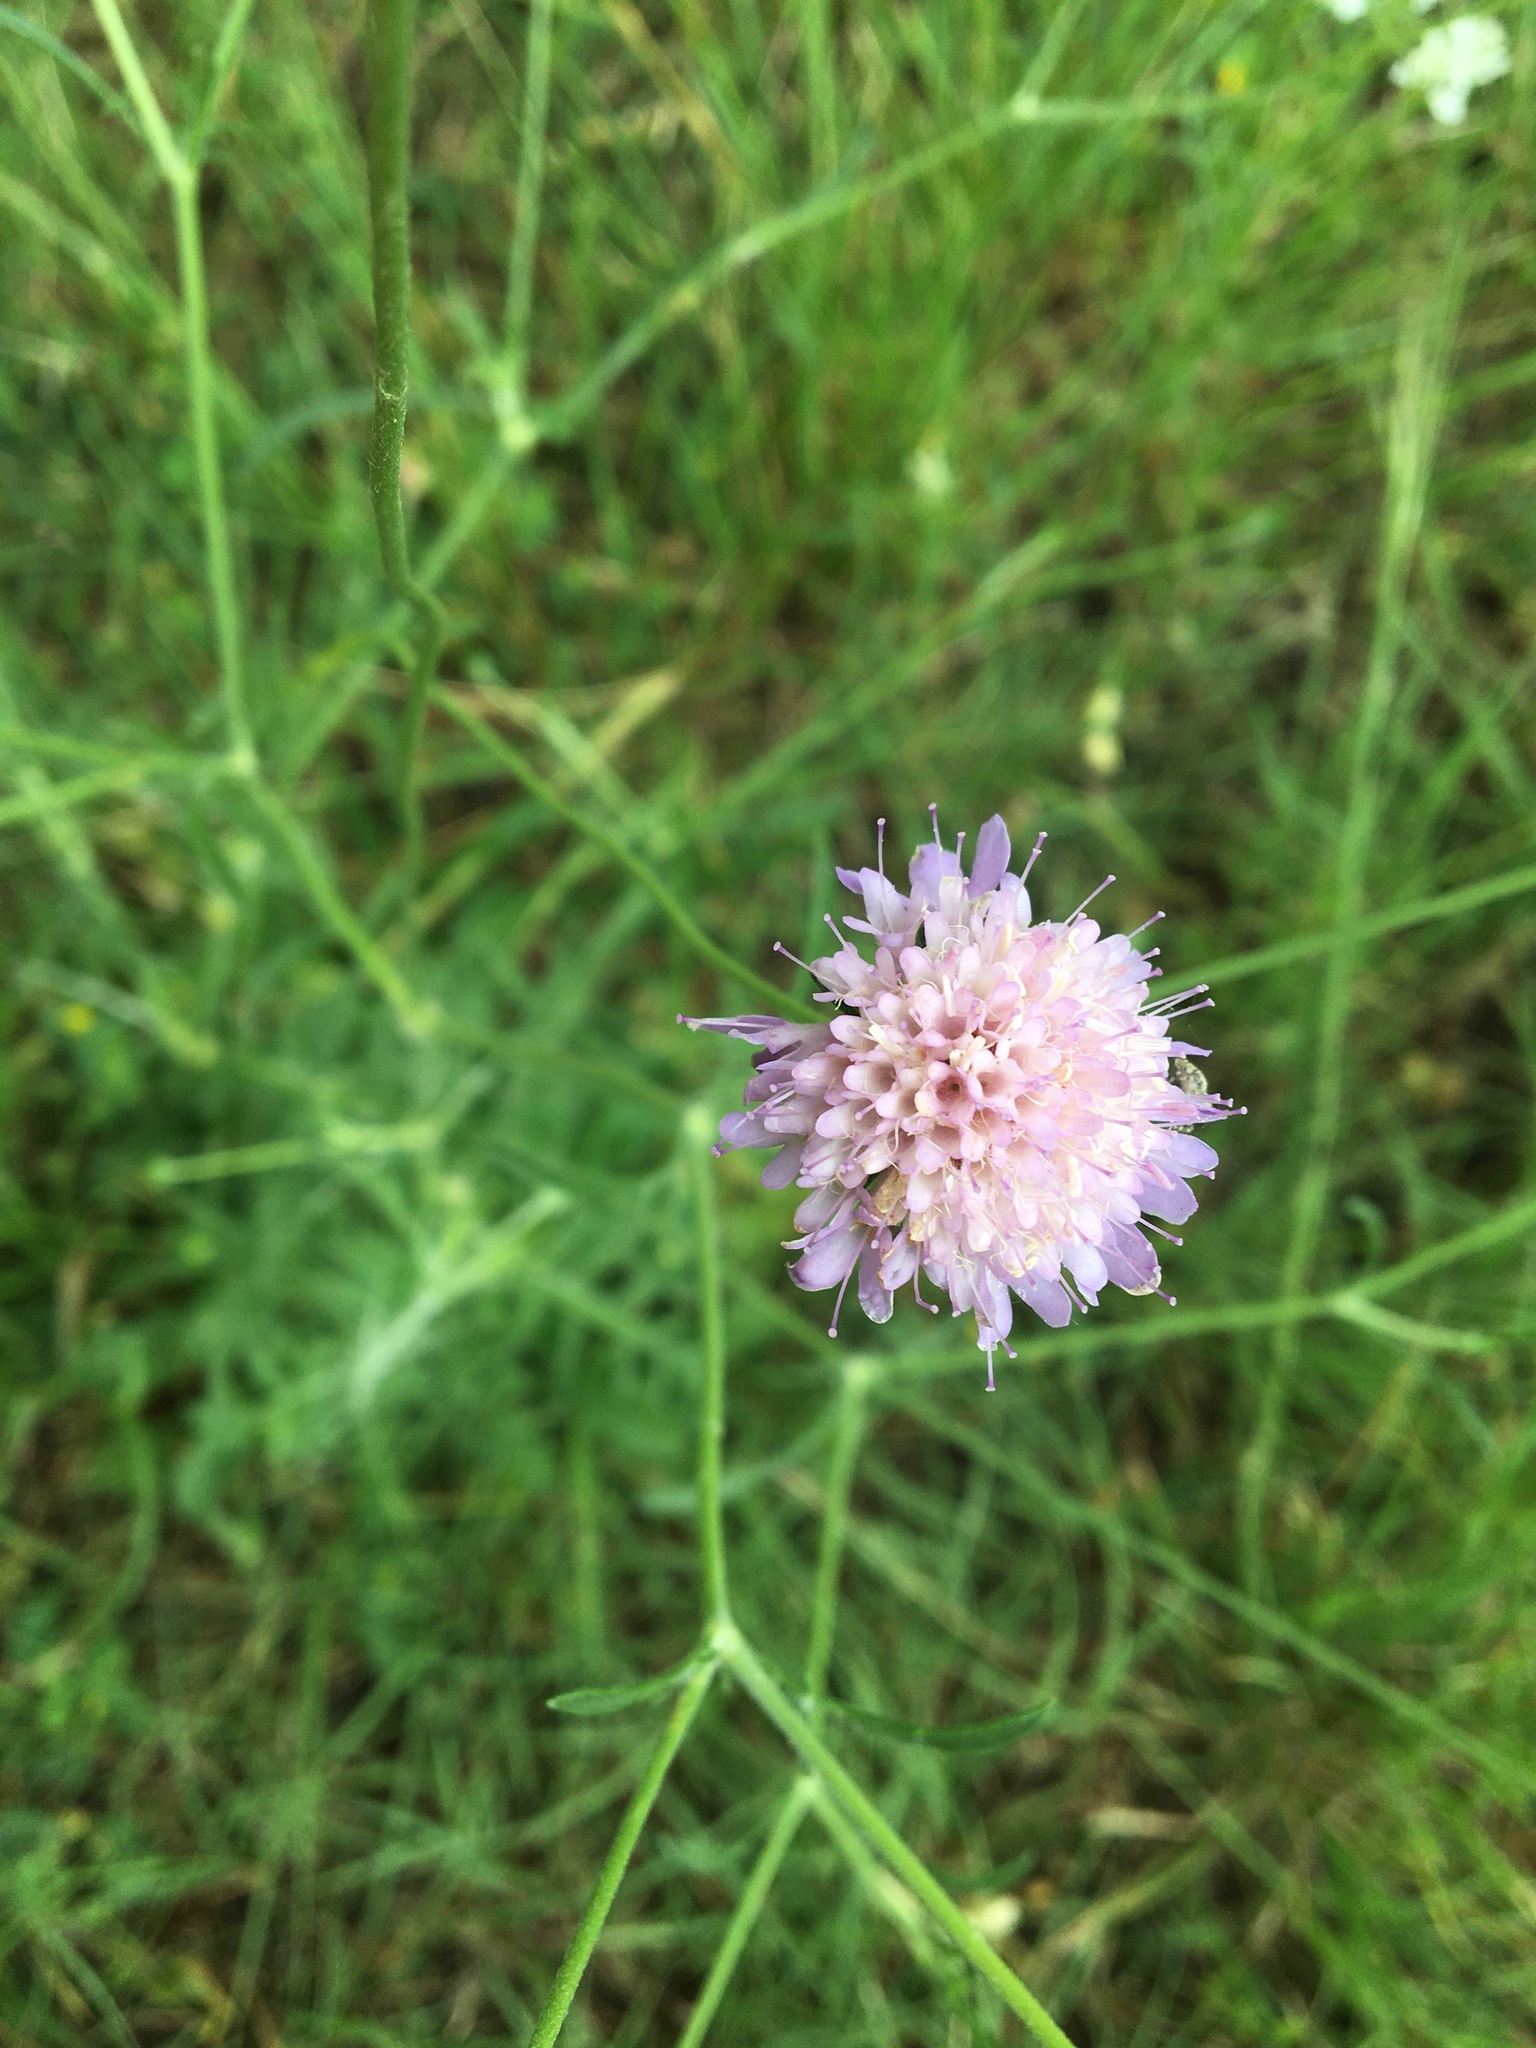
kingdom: Plantae
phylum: Tracheophyta
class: Magnoliopsida
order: Dipsacales
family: Caprifoliaceae
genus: Sixalix
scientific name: Sixalix atropurpurea
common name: Sweet scabious
